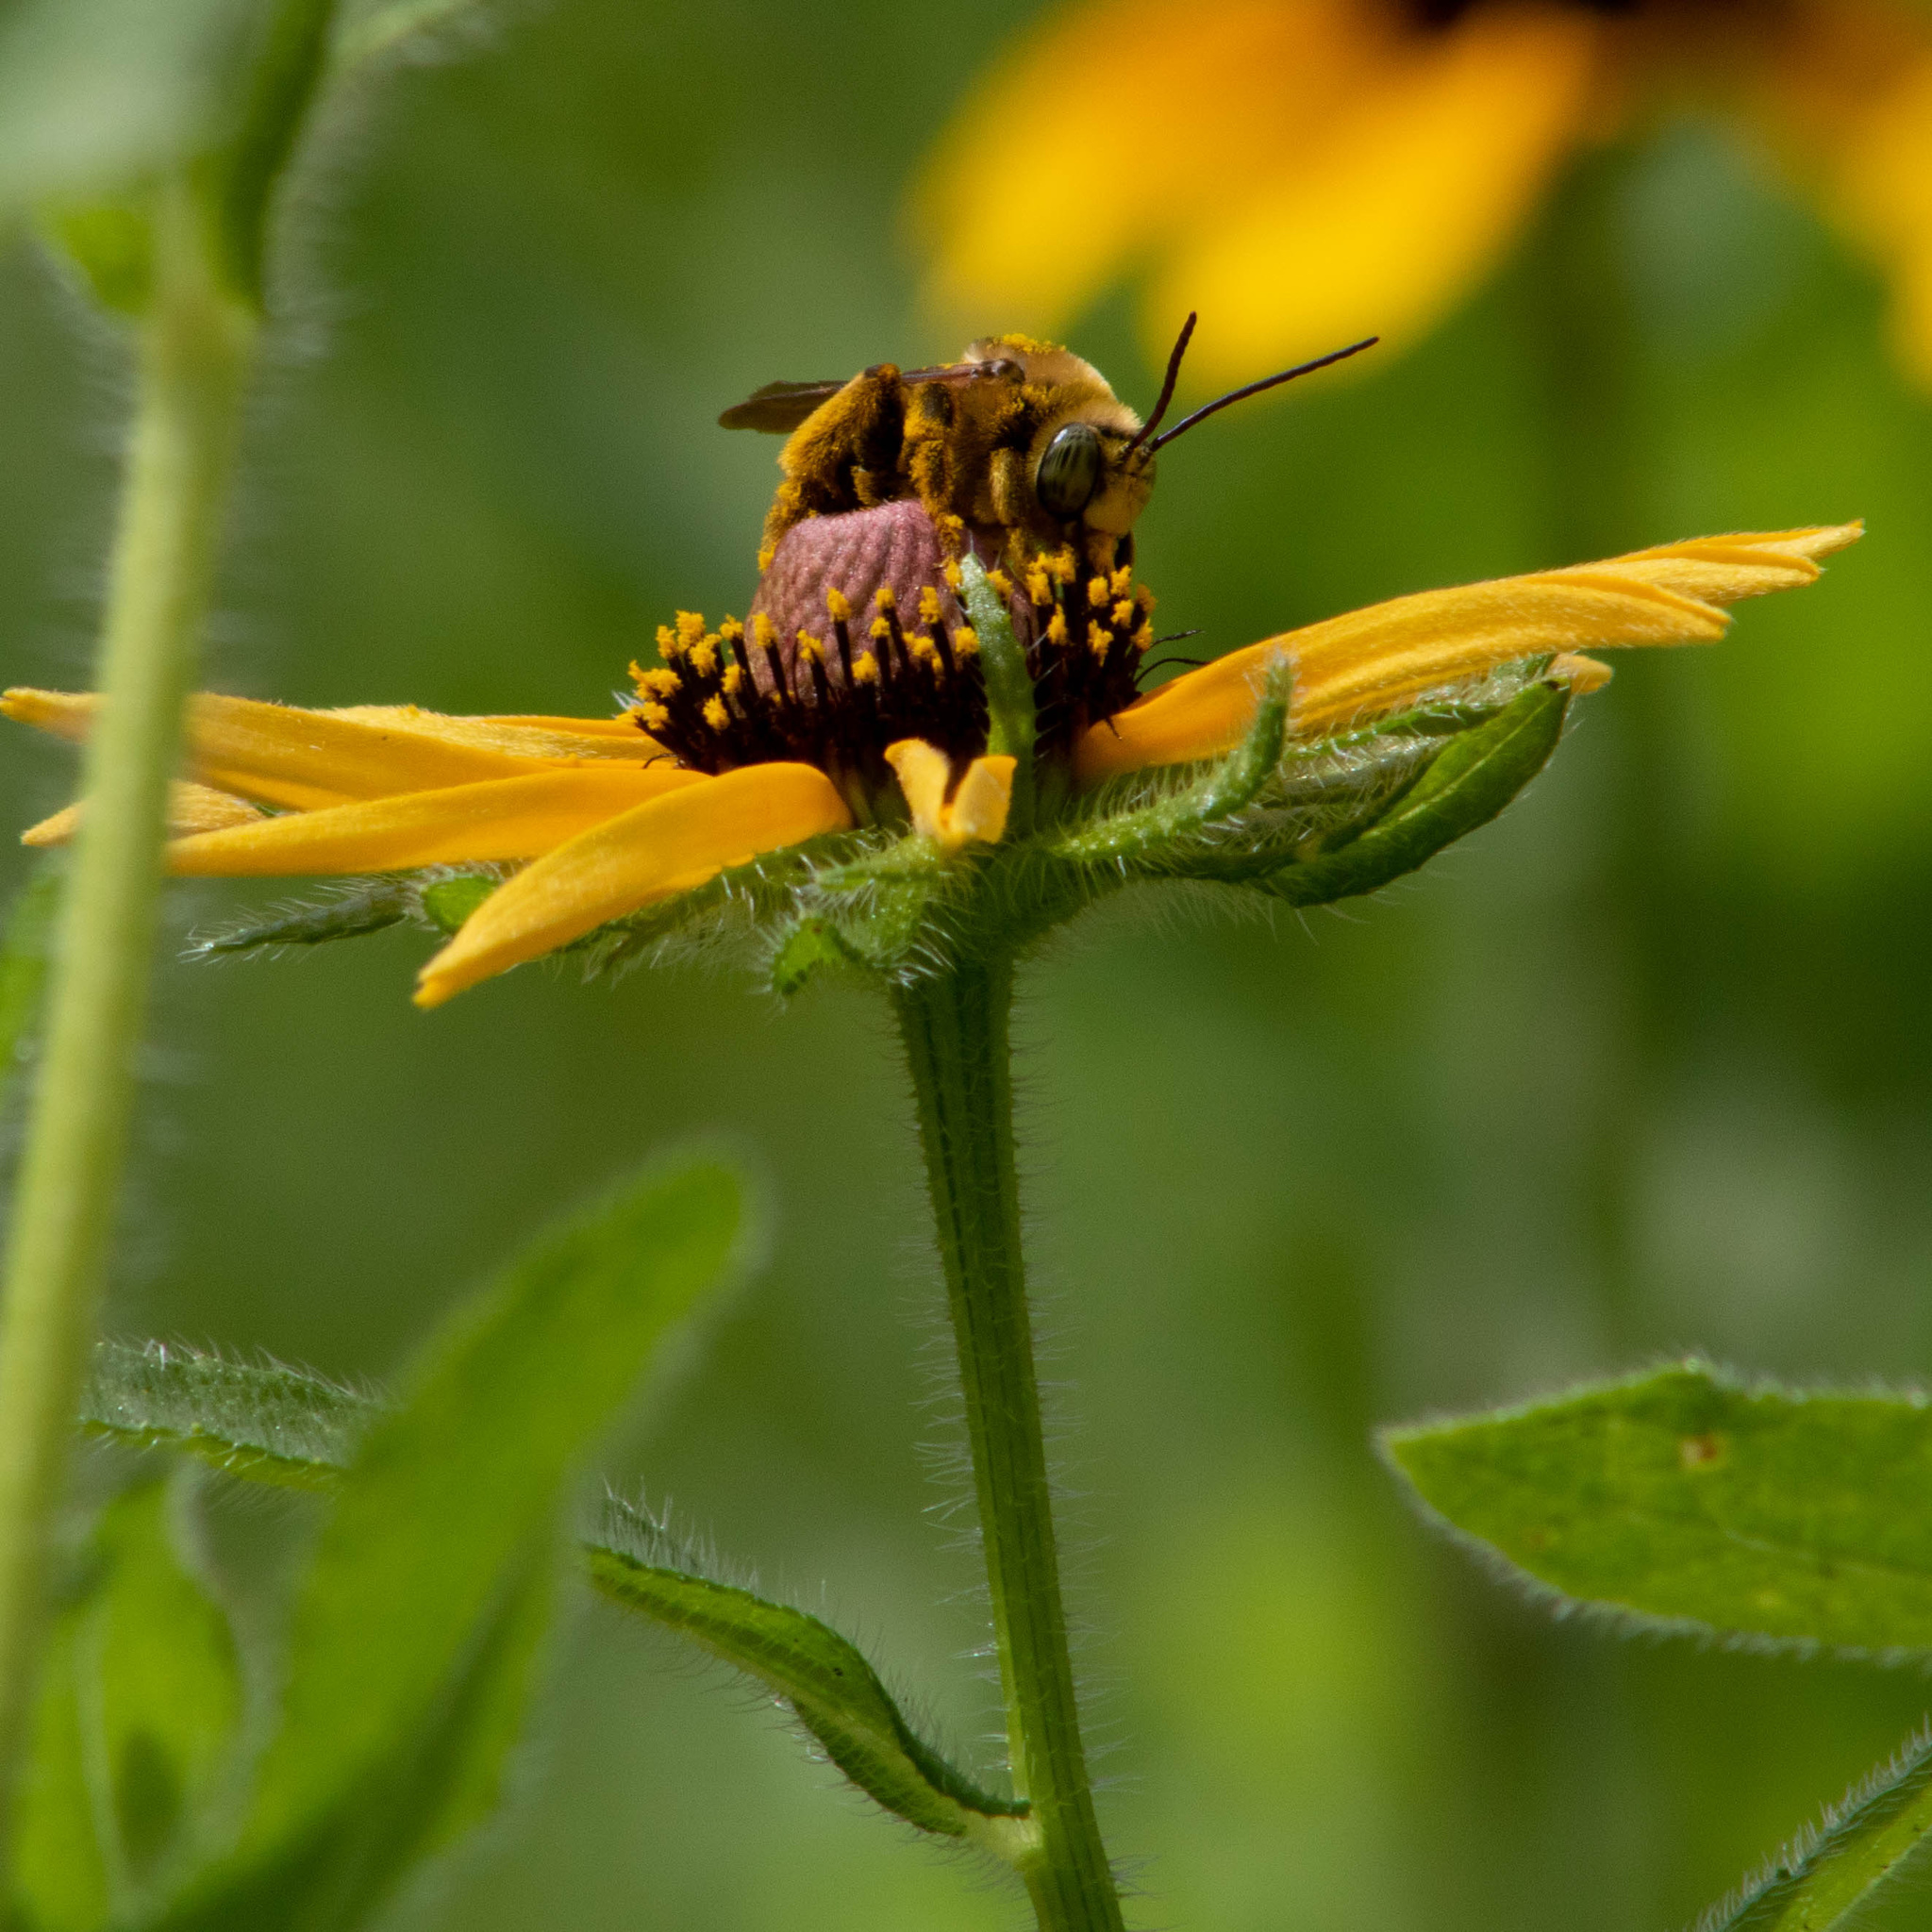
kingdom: Animalia
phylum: Arthropoda
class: Insecta
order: Hymenoptera
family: Apidae
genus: Svastra
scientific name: Svastra obliqua
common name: Oblique longhorn
